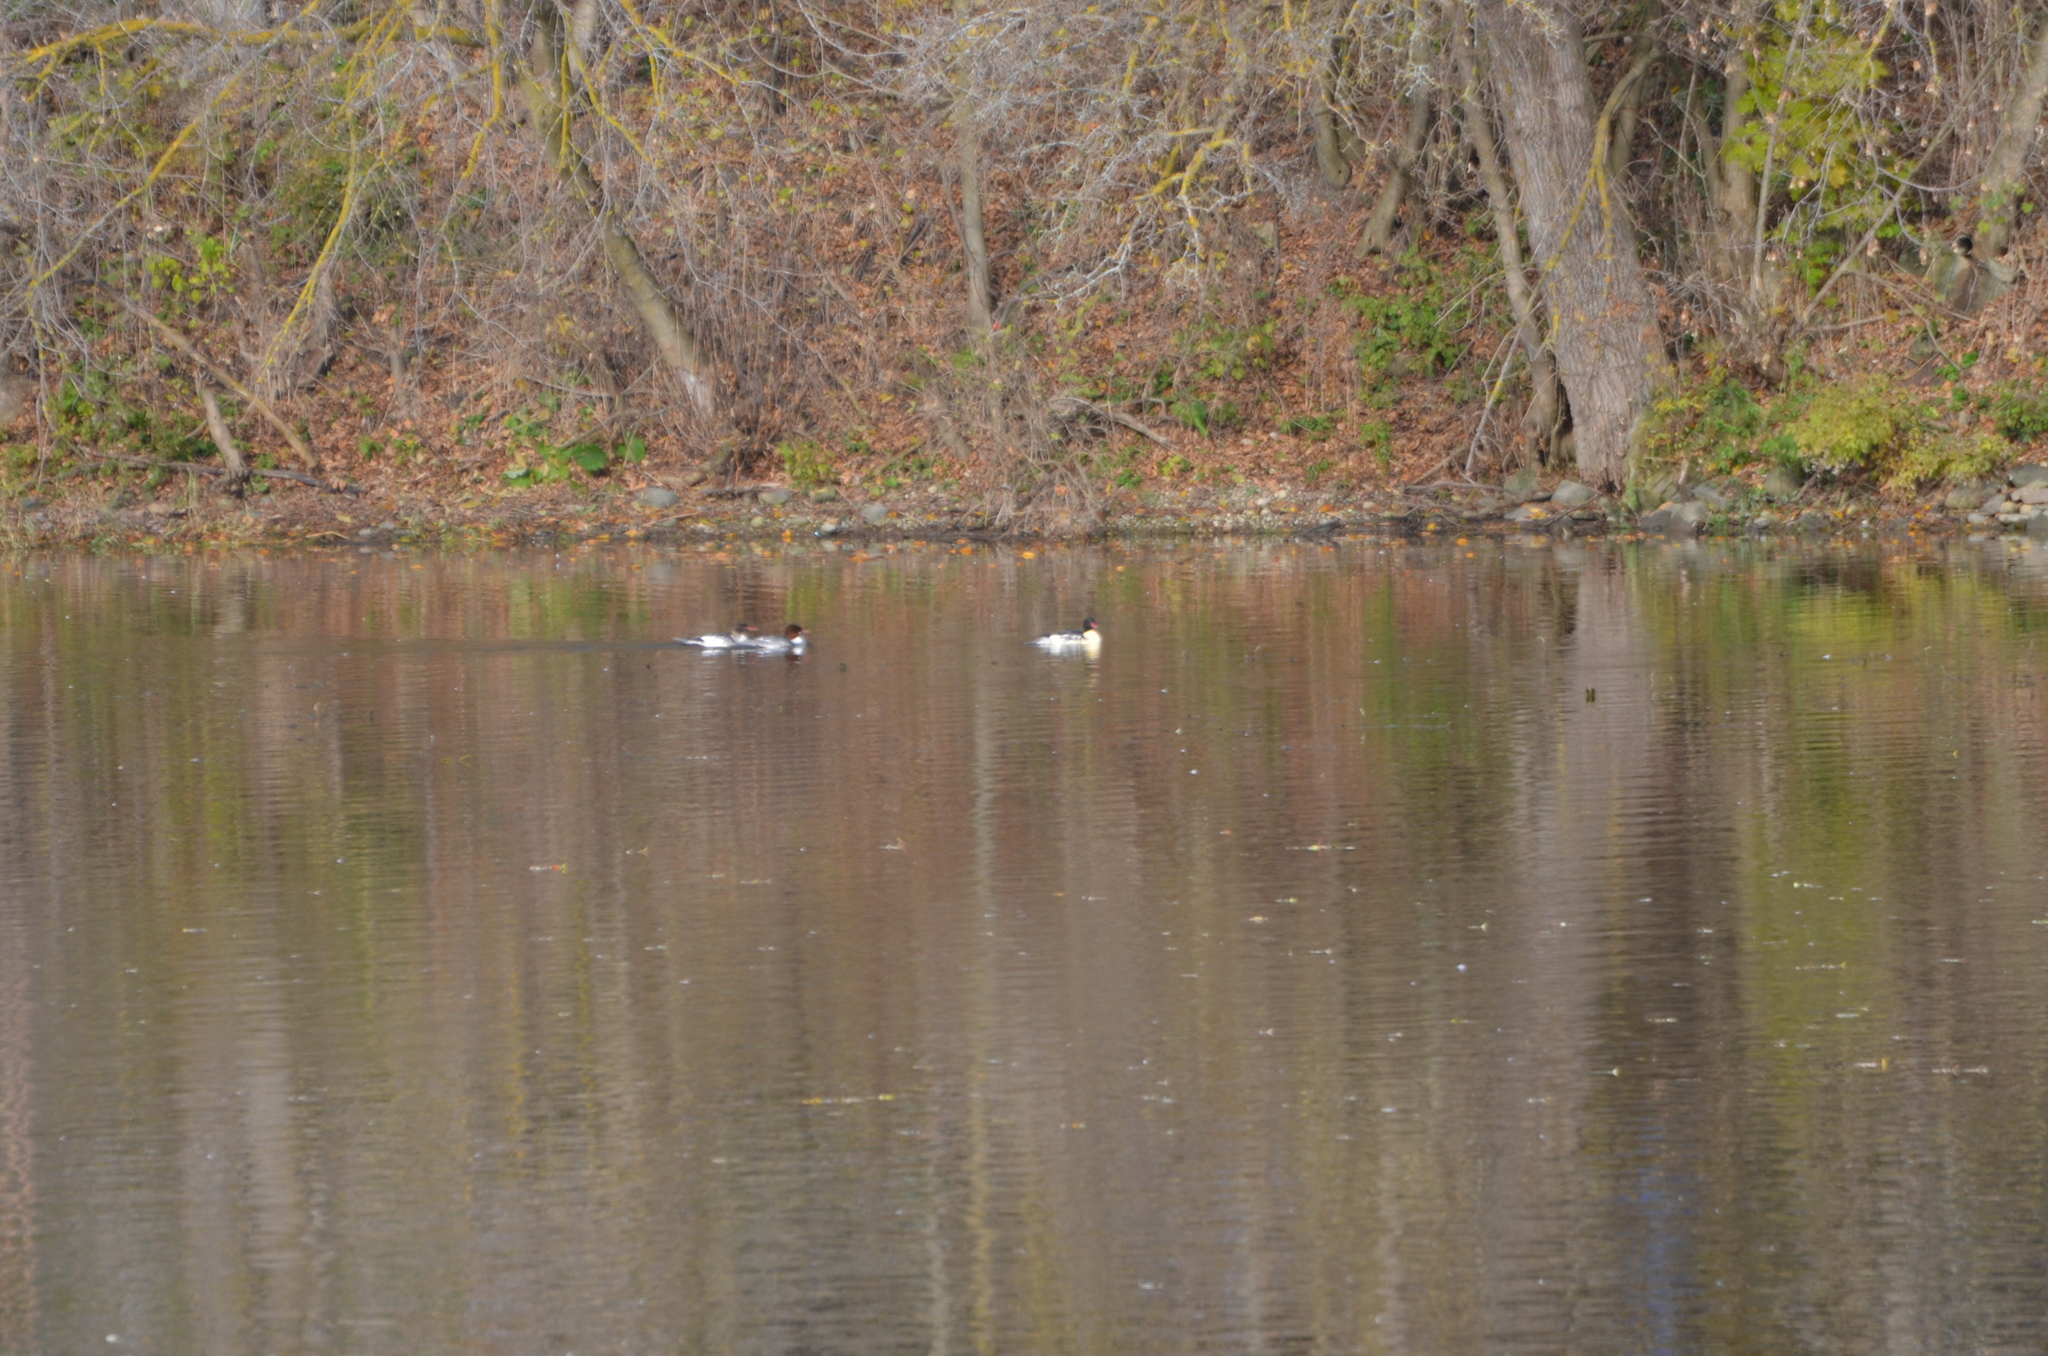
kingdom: Animalia
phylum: Chordata
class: Aves
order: Anseriformes
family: Anatidae
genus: Mergus
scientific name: Mergus merganser
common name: Common merganser
